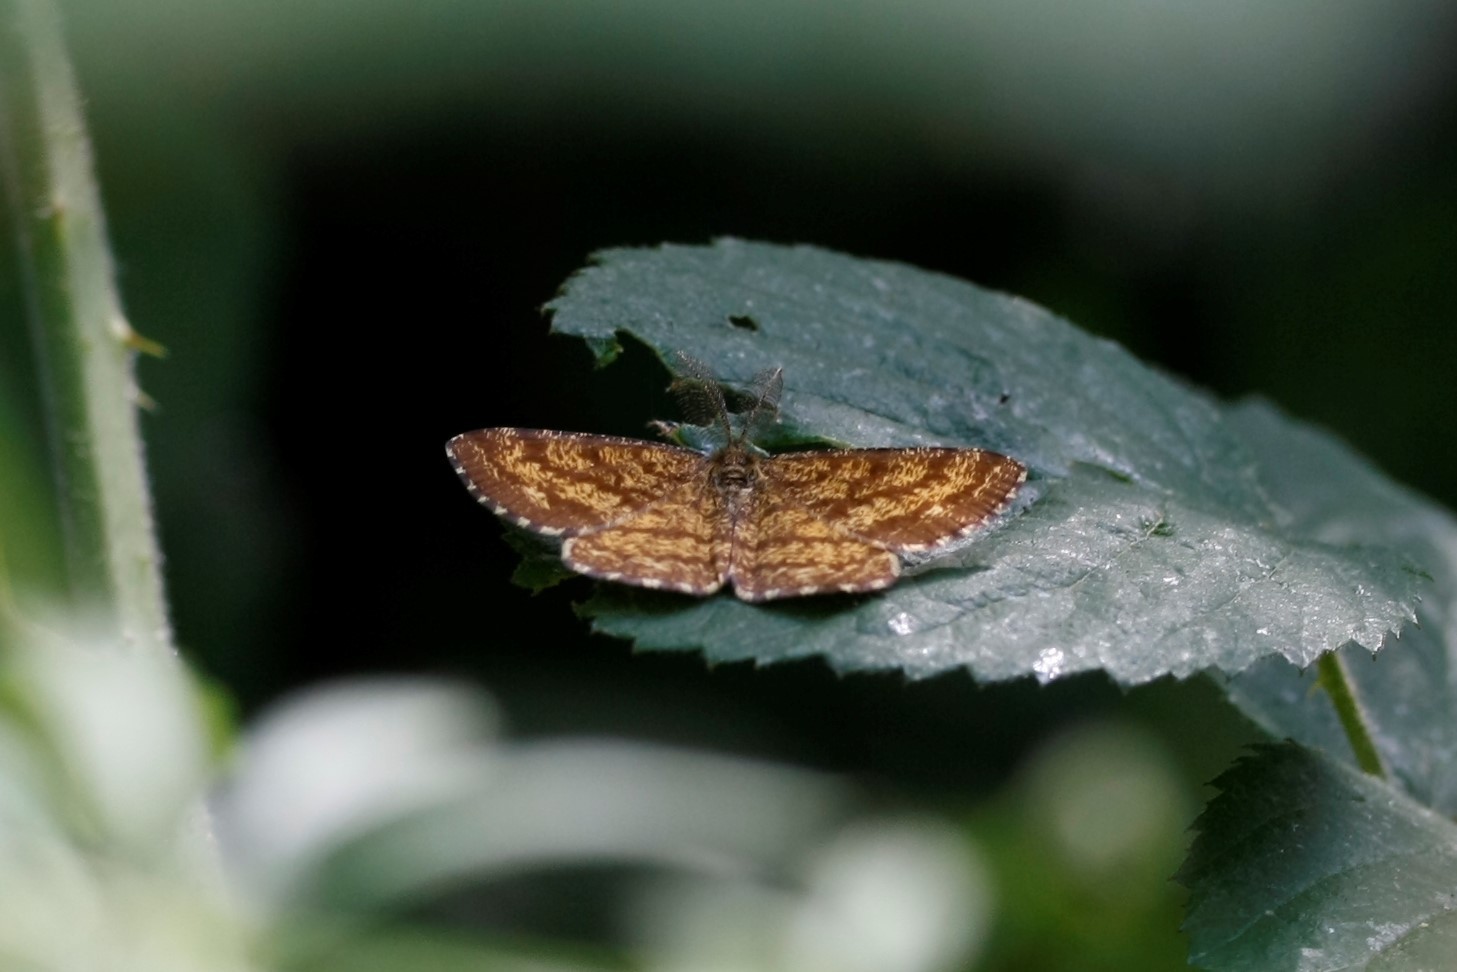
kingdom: Animalia
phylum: Arthropoda
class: Insecta
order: Lepidoptera
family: Geometridae
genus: Ematurga
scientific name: Ematurga atomaria
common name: Common heath
